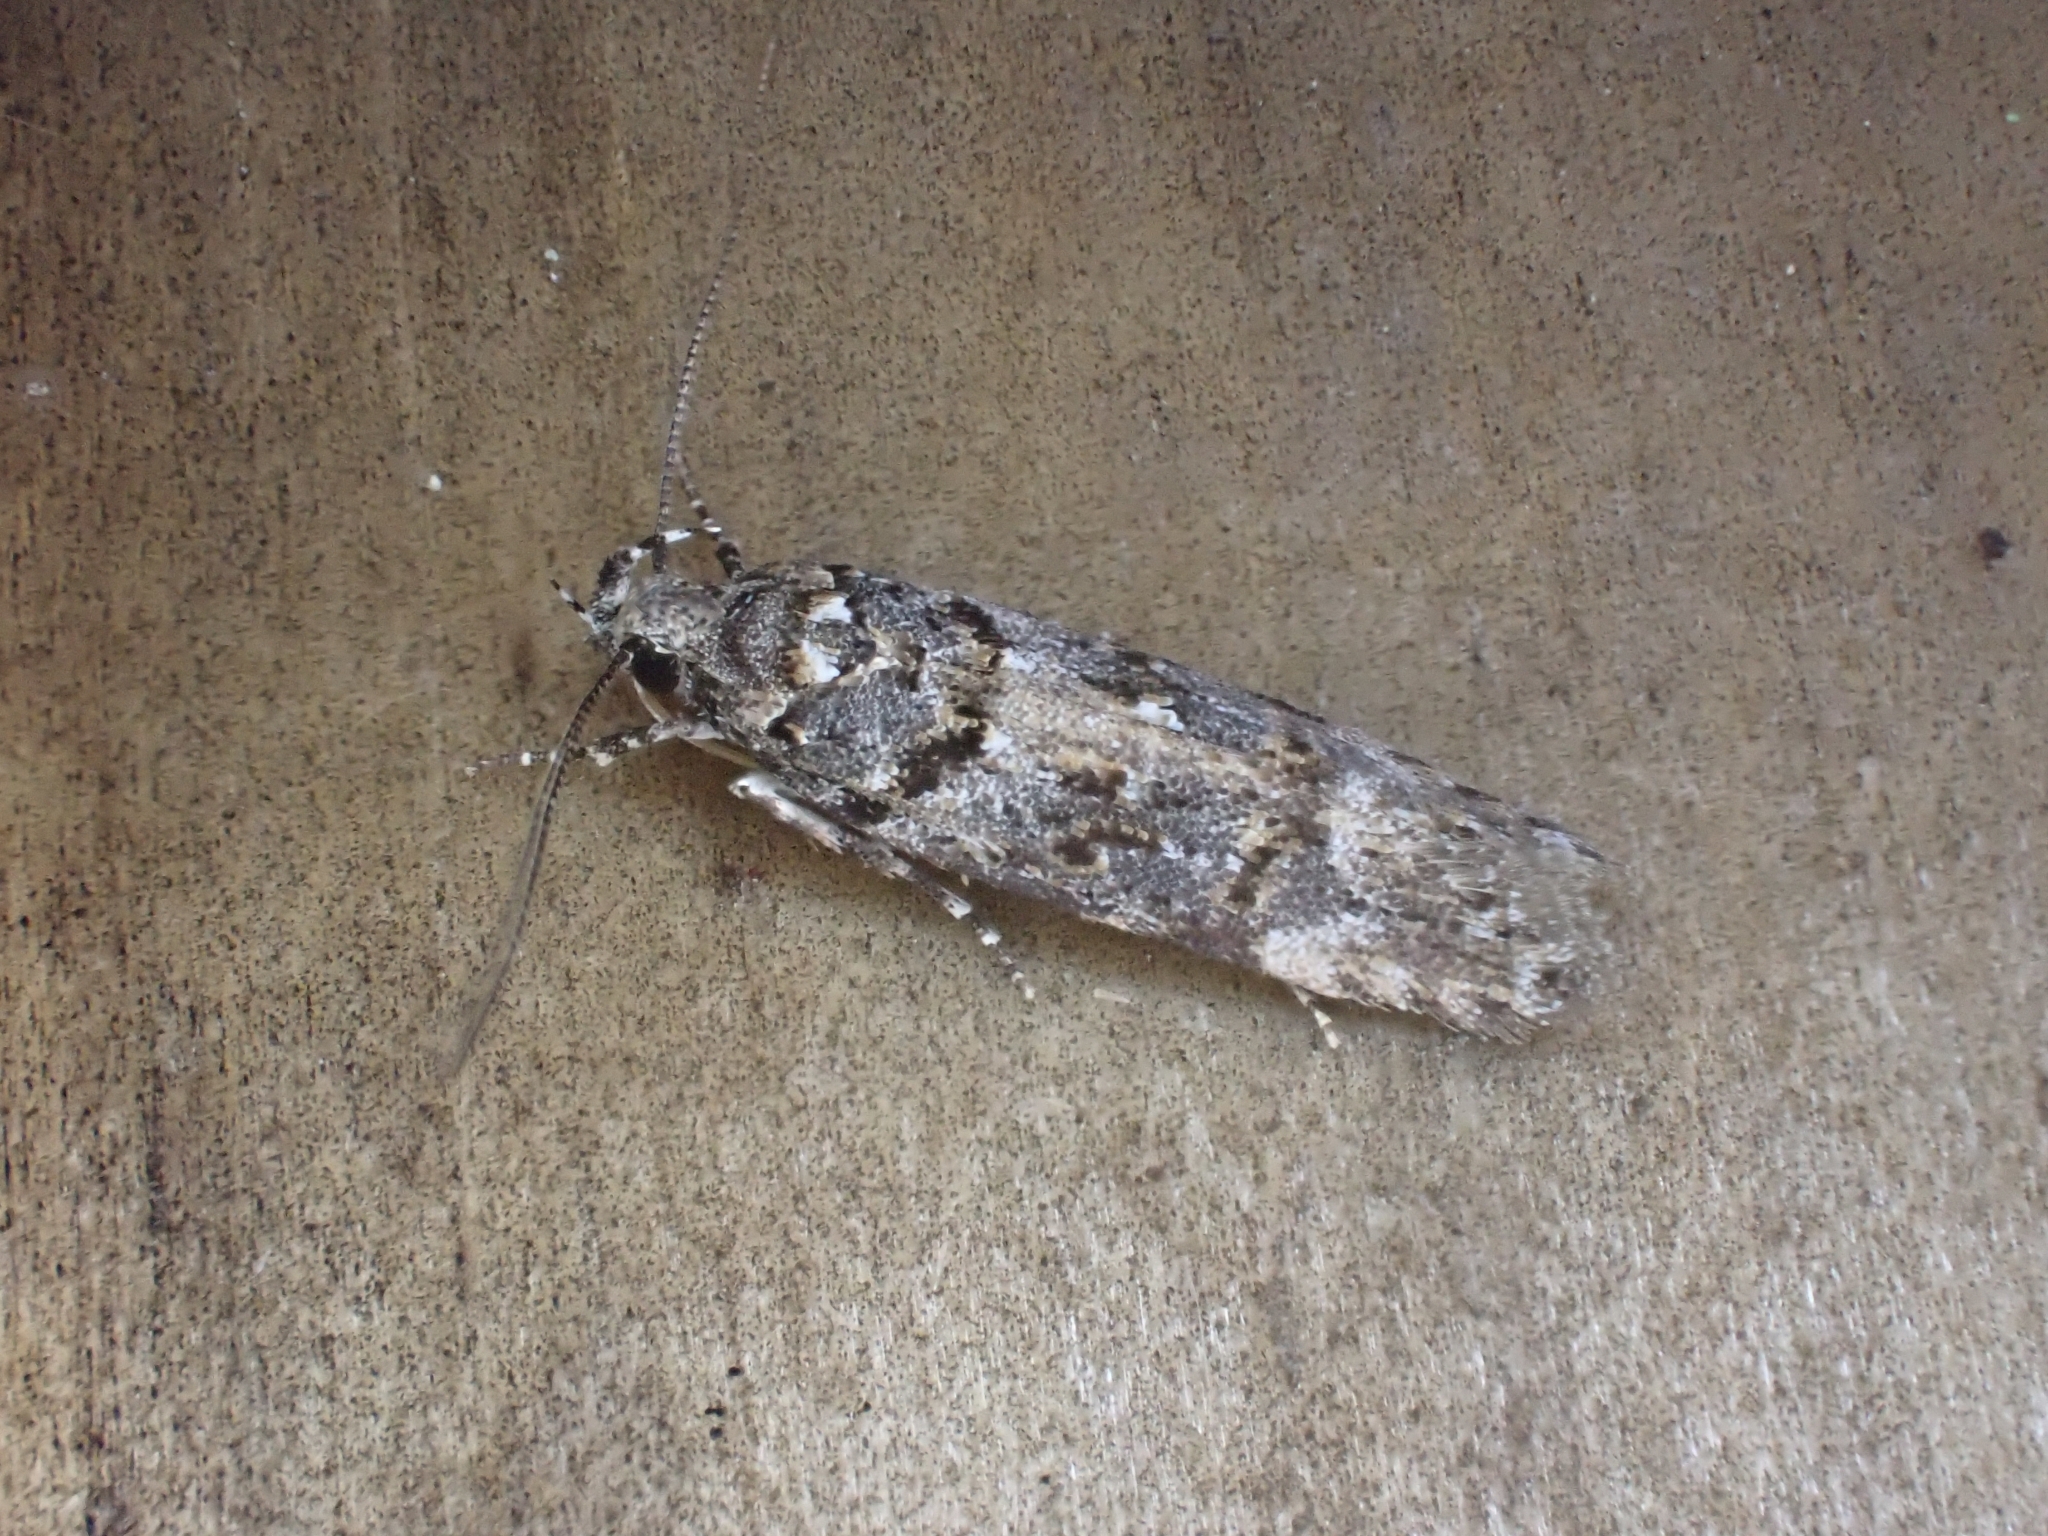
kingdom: Animalia
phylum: Arthropoda
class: Insecta
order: Lepidoptera
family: Gelechiidae
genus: Teleiopsis
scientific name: Teleiopsis diffinis
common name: Large groundling
